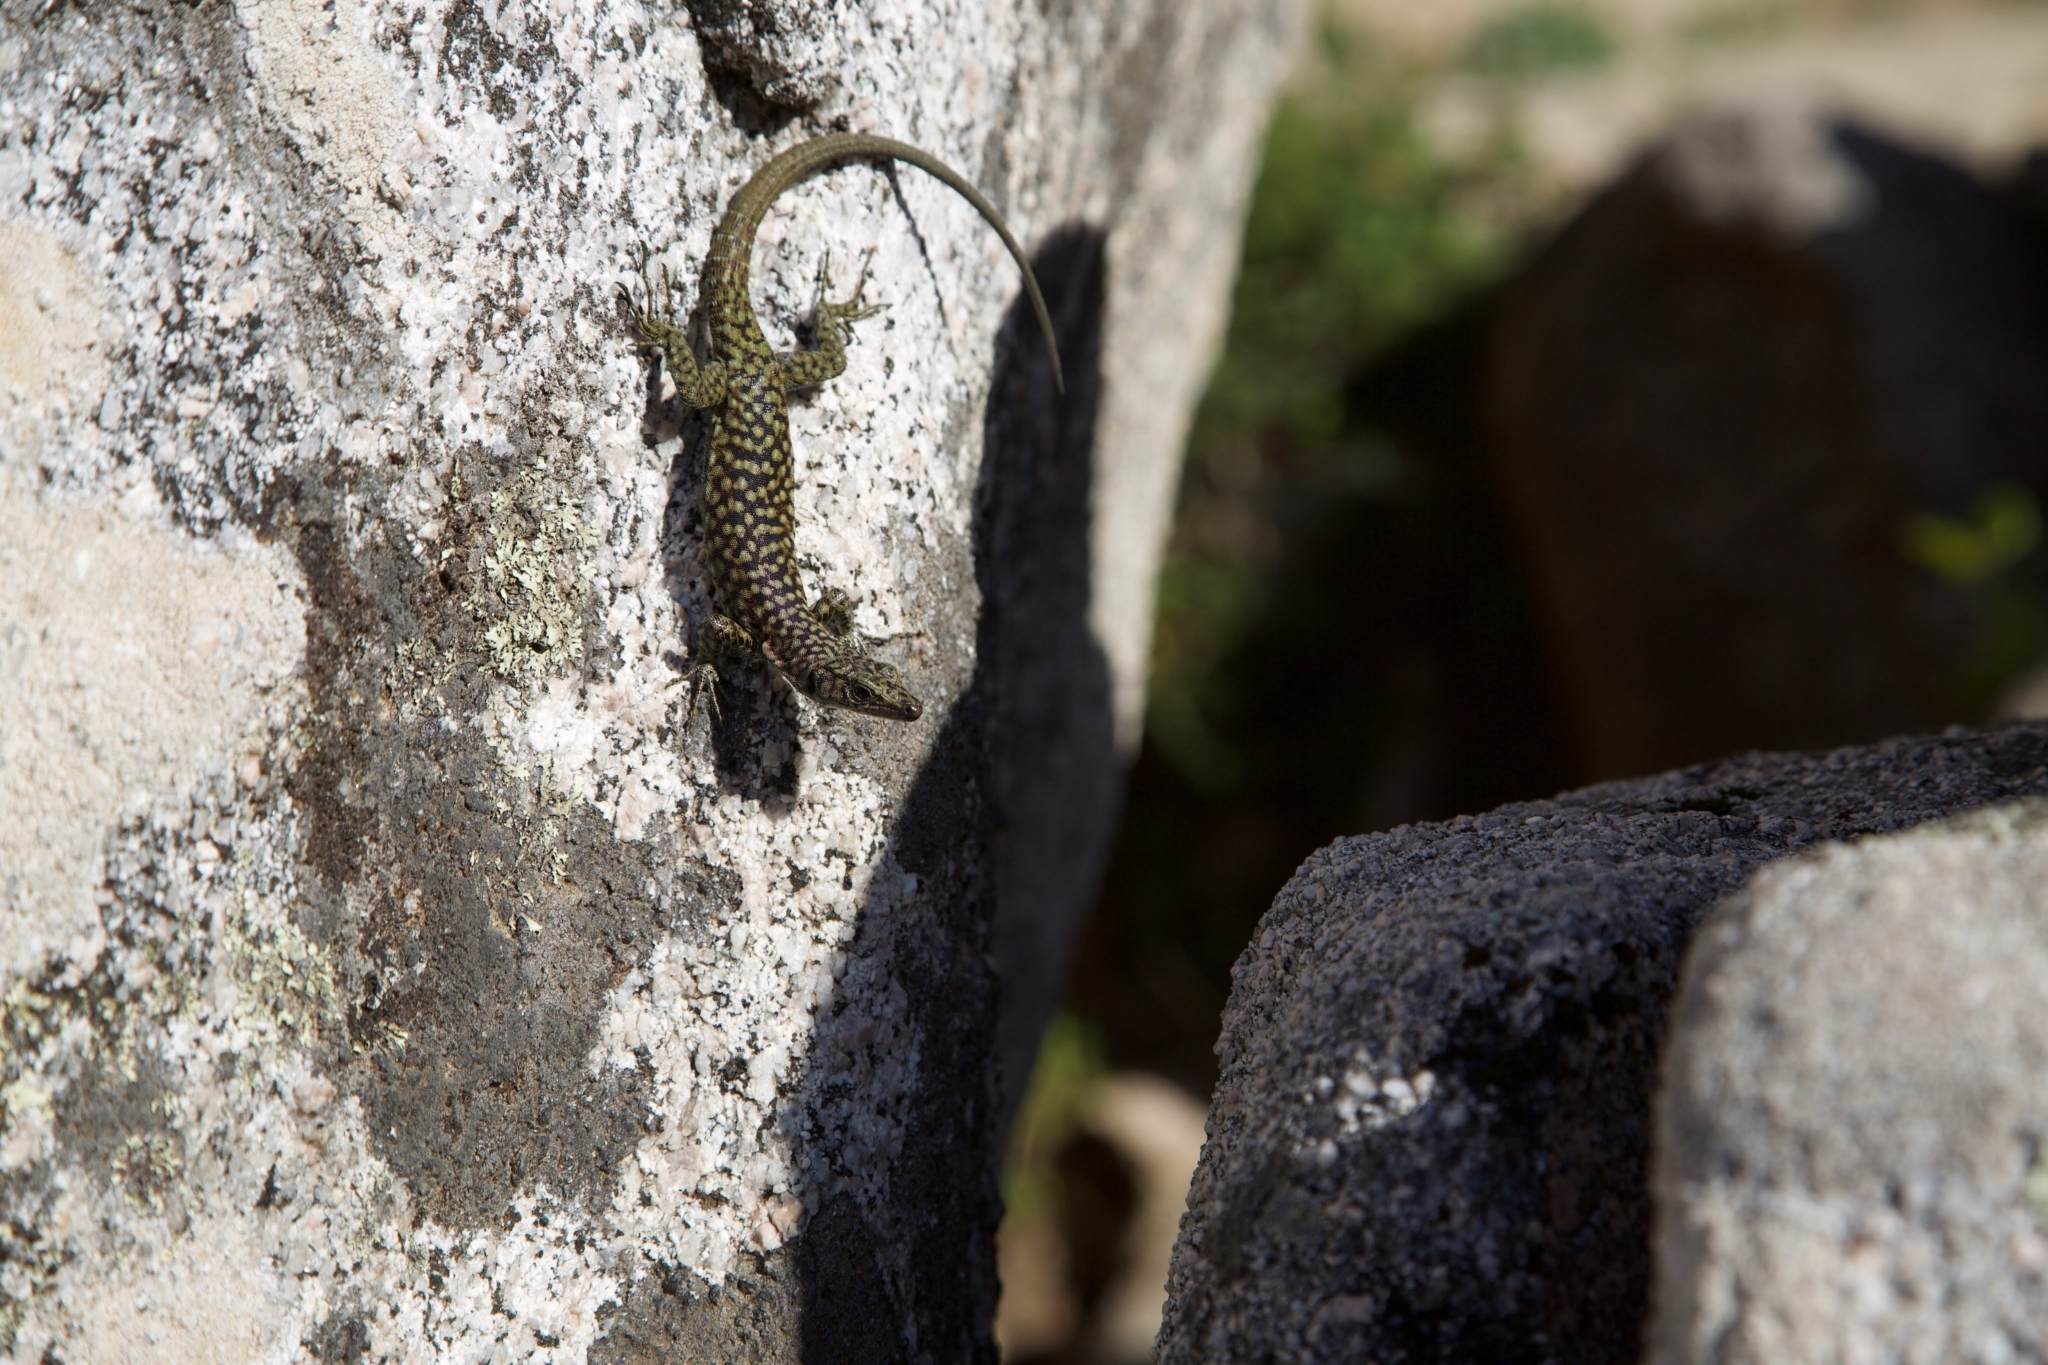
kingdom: Animalia
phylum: Chordata
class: Squamata
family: Lacertidae
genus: Archaeolacerta
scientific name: Archaeolacerta bedriagae
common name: Bedriaga's rock lizard
